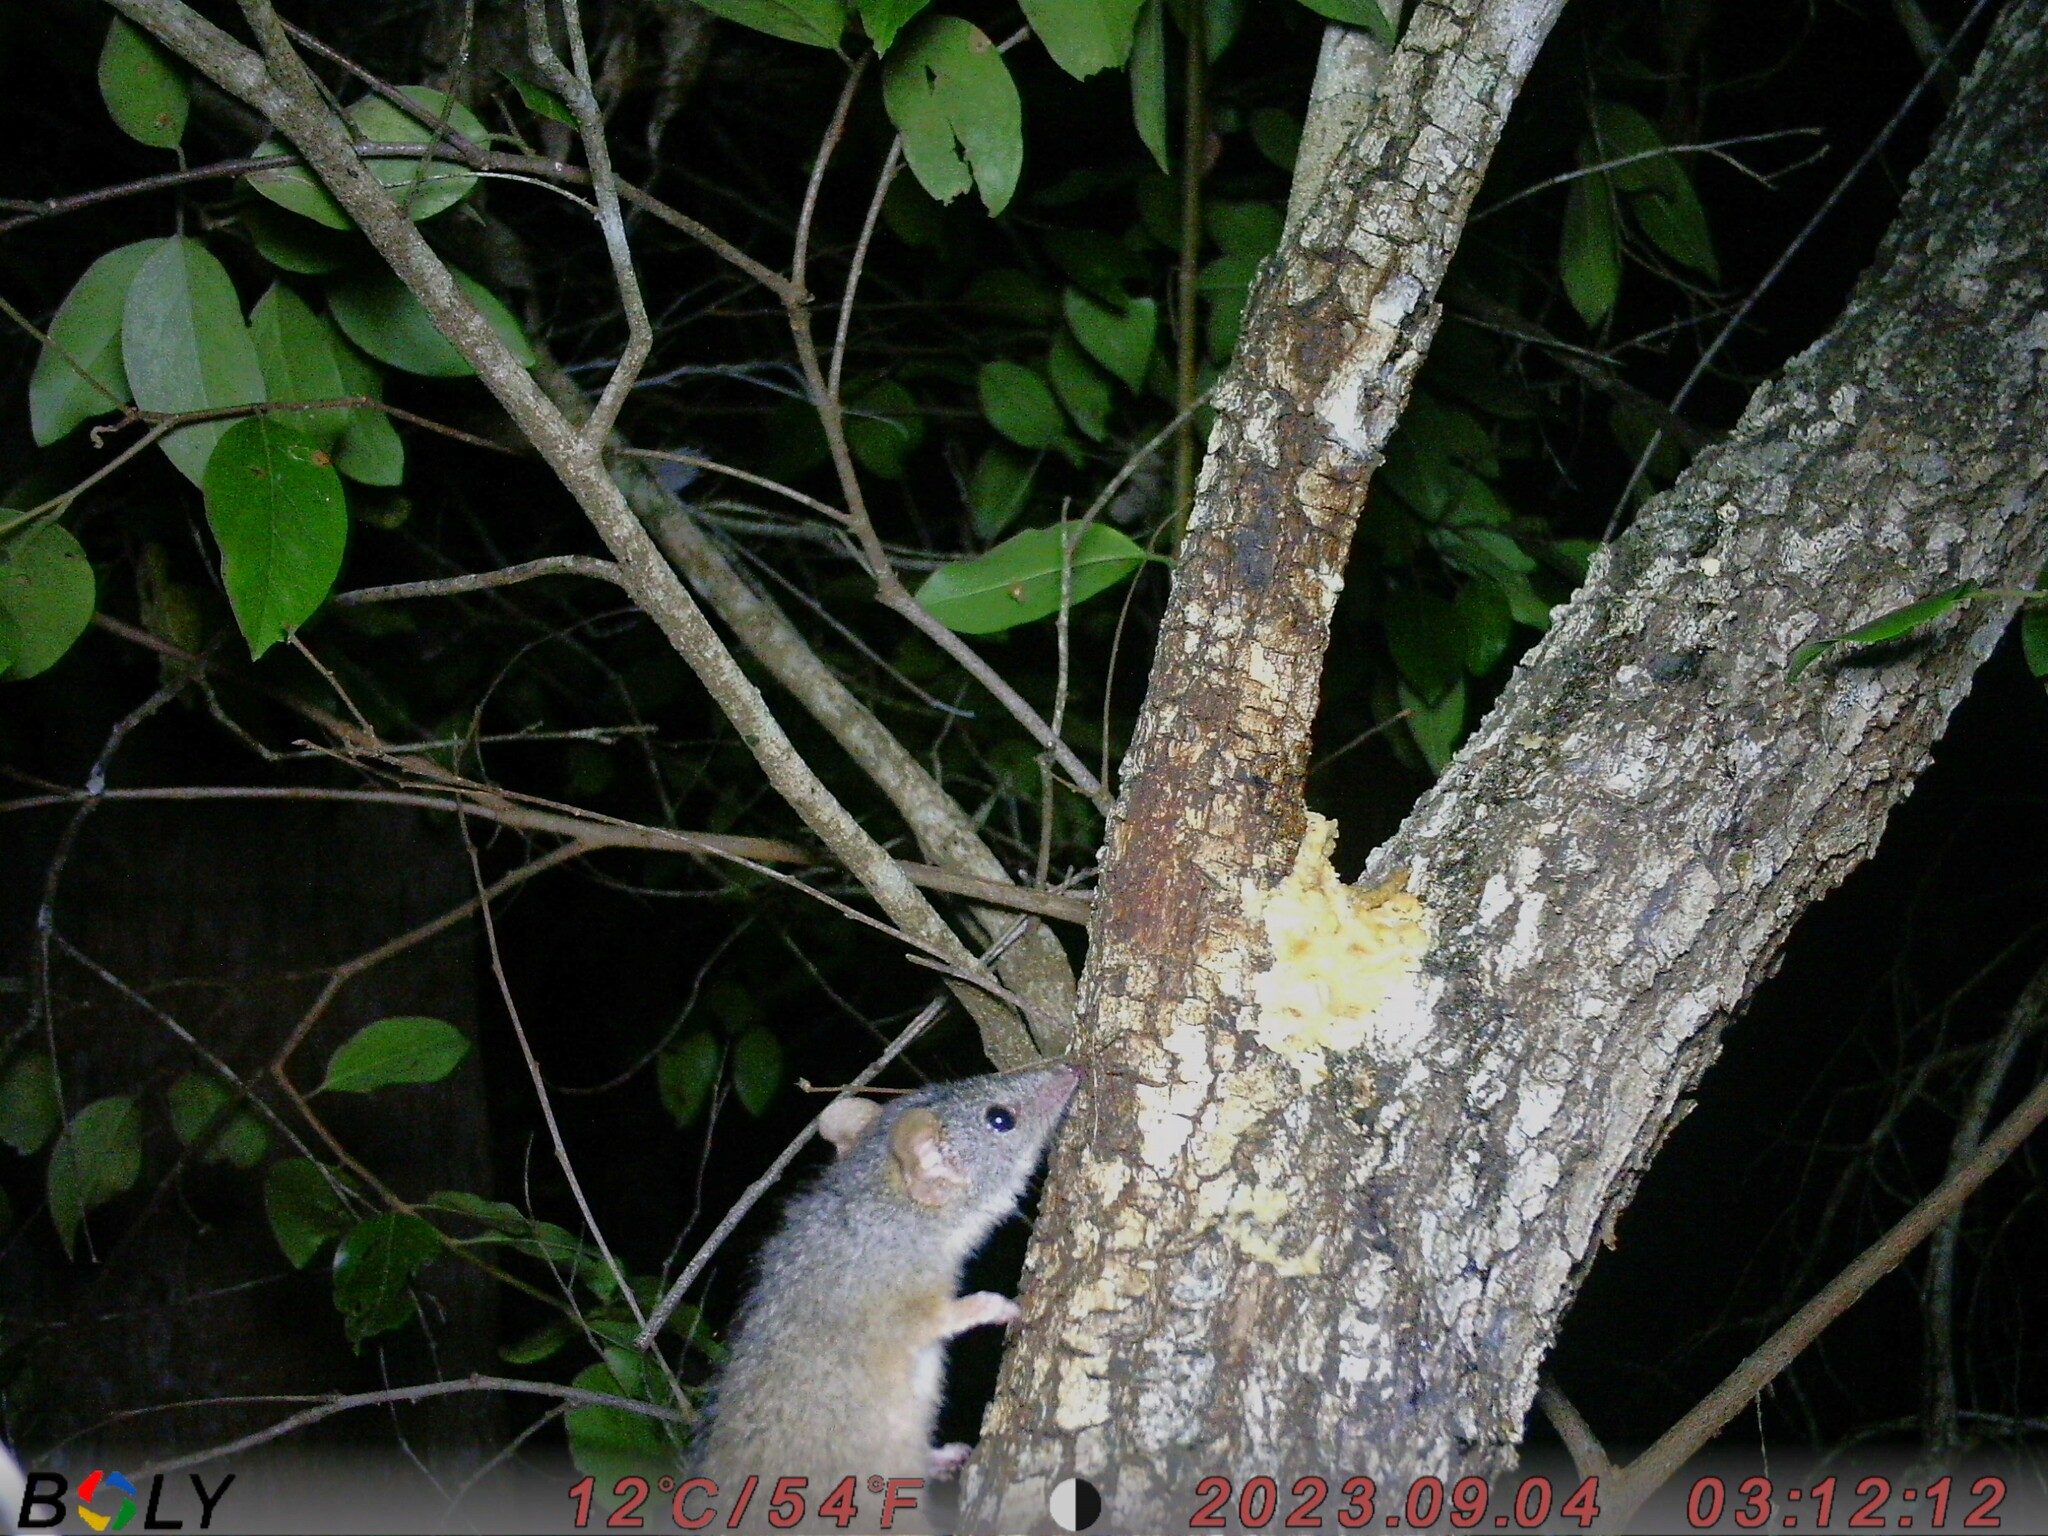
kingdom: Animalia
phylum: Chordata
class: Mammalia
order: Dasyuromorphia
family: Dasyuridae
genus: Antechinus
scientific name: Antechinus flavipes
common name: Yellow-footed antechinus
